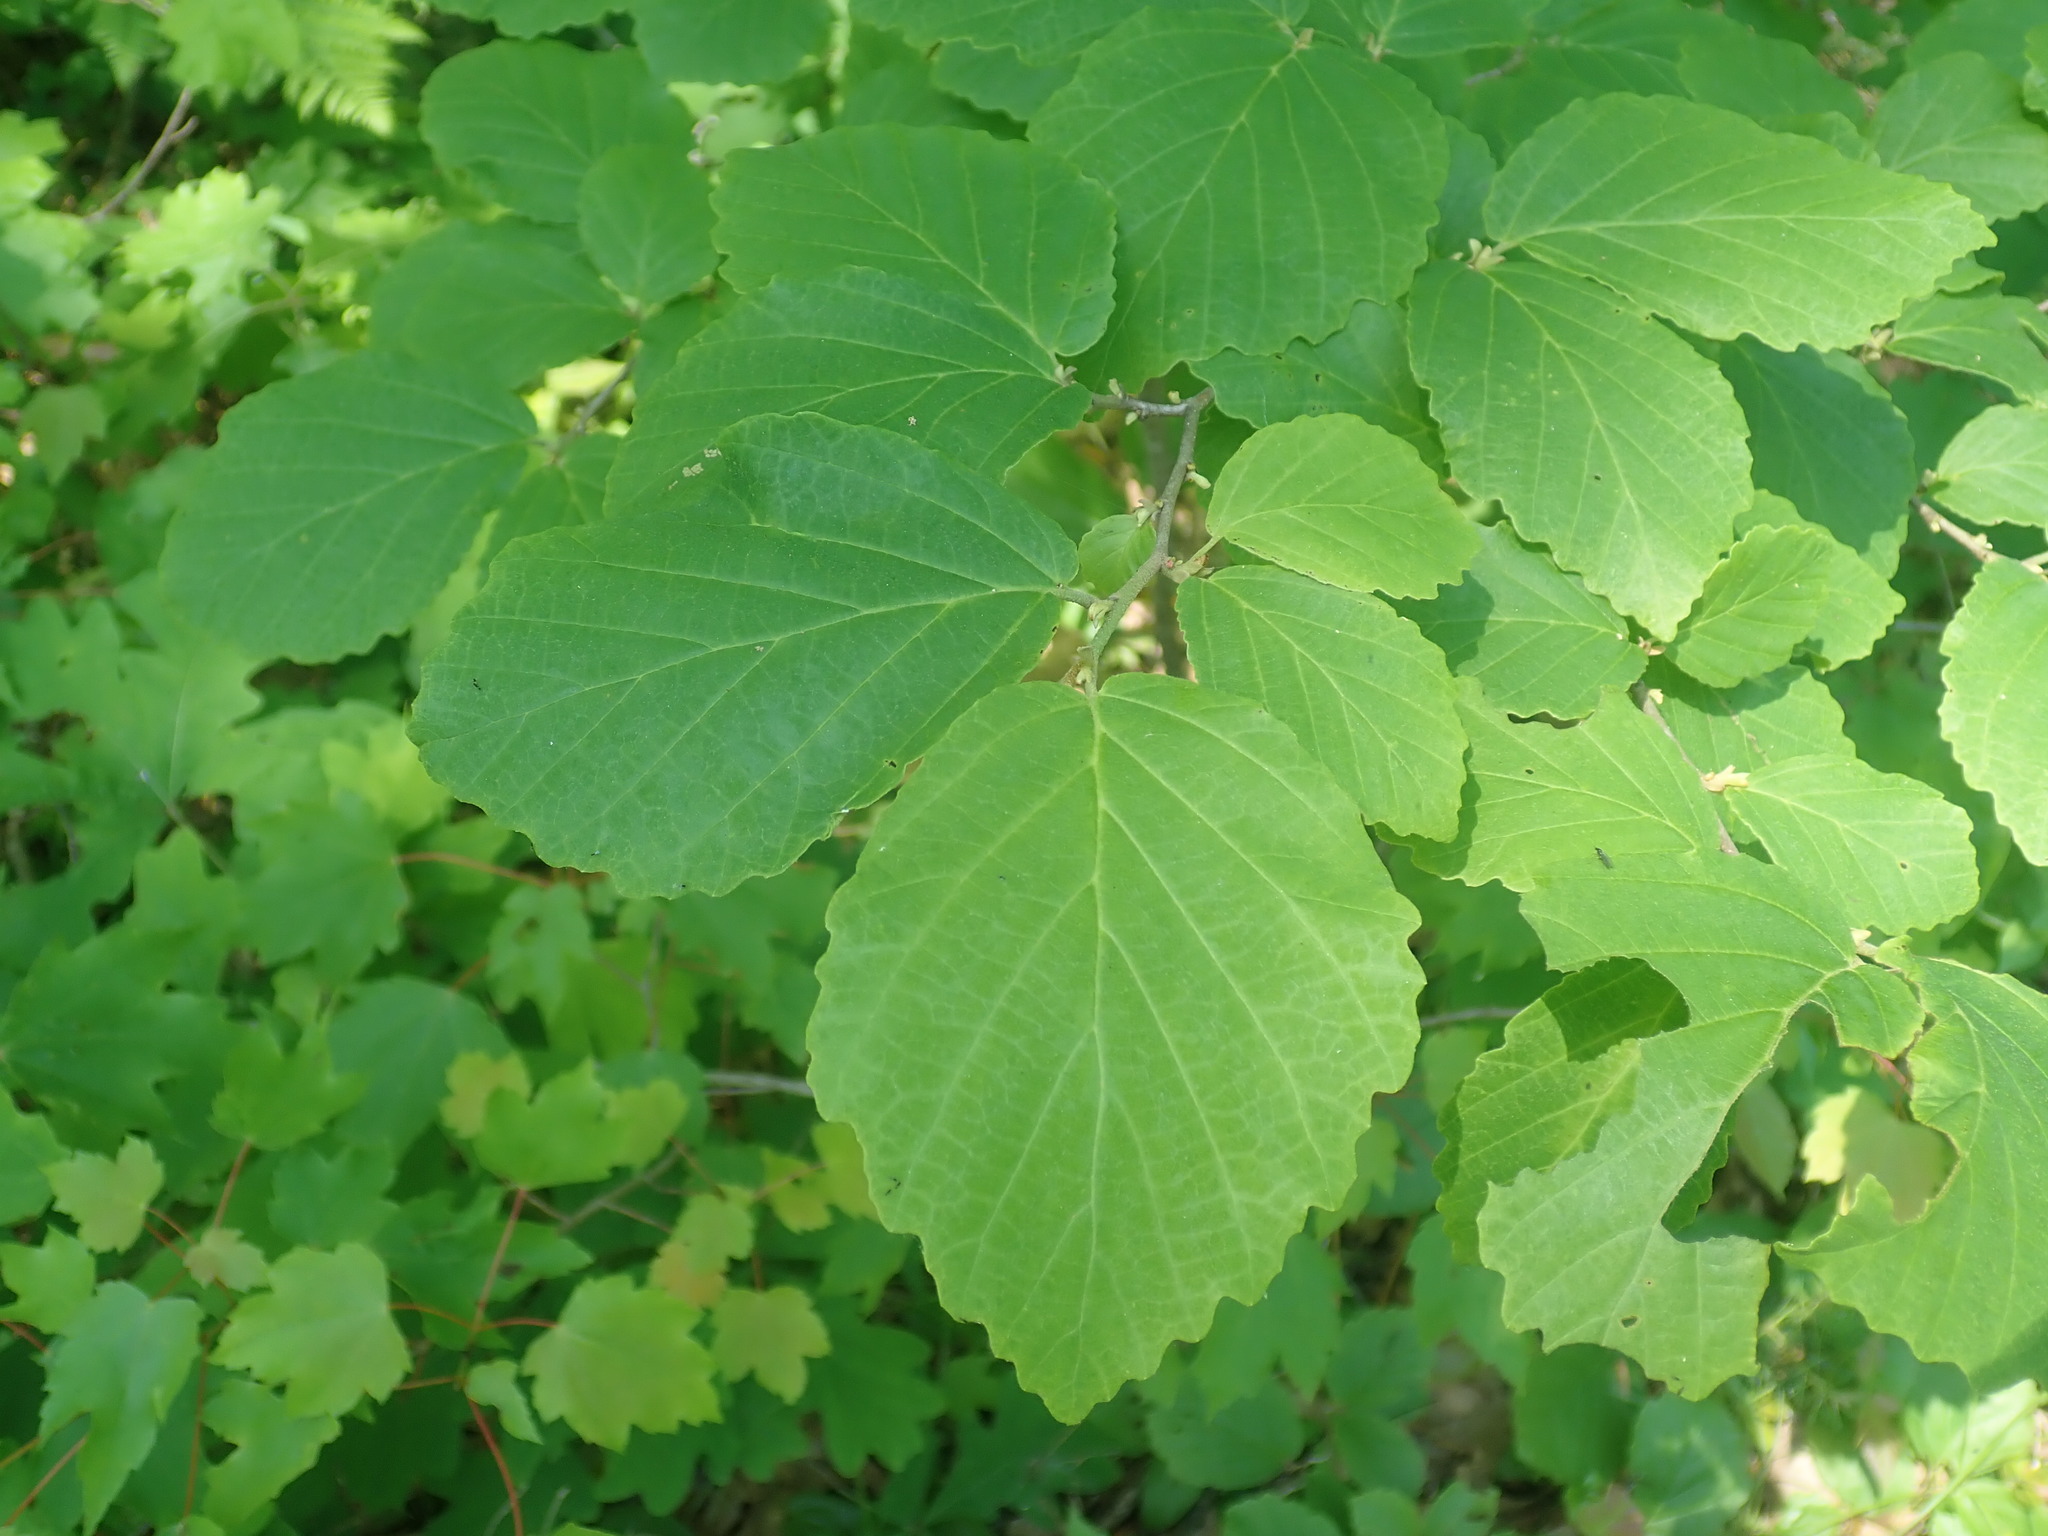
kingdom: Plantae
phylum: Tracheophyta
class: Magnoliopsida
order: Saxifragales
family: Hamamelidaceae
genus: Hamamelis
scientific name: Hamamelis virginiana
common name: Witch-hazel
